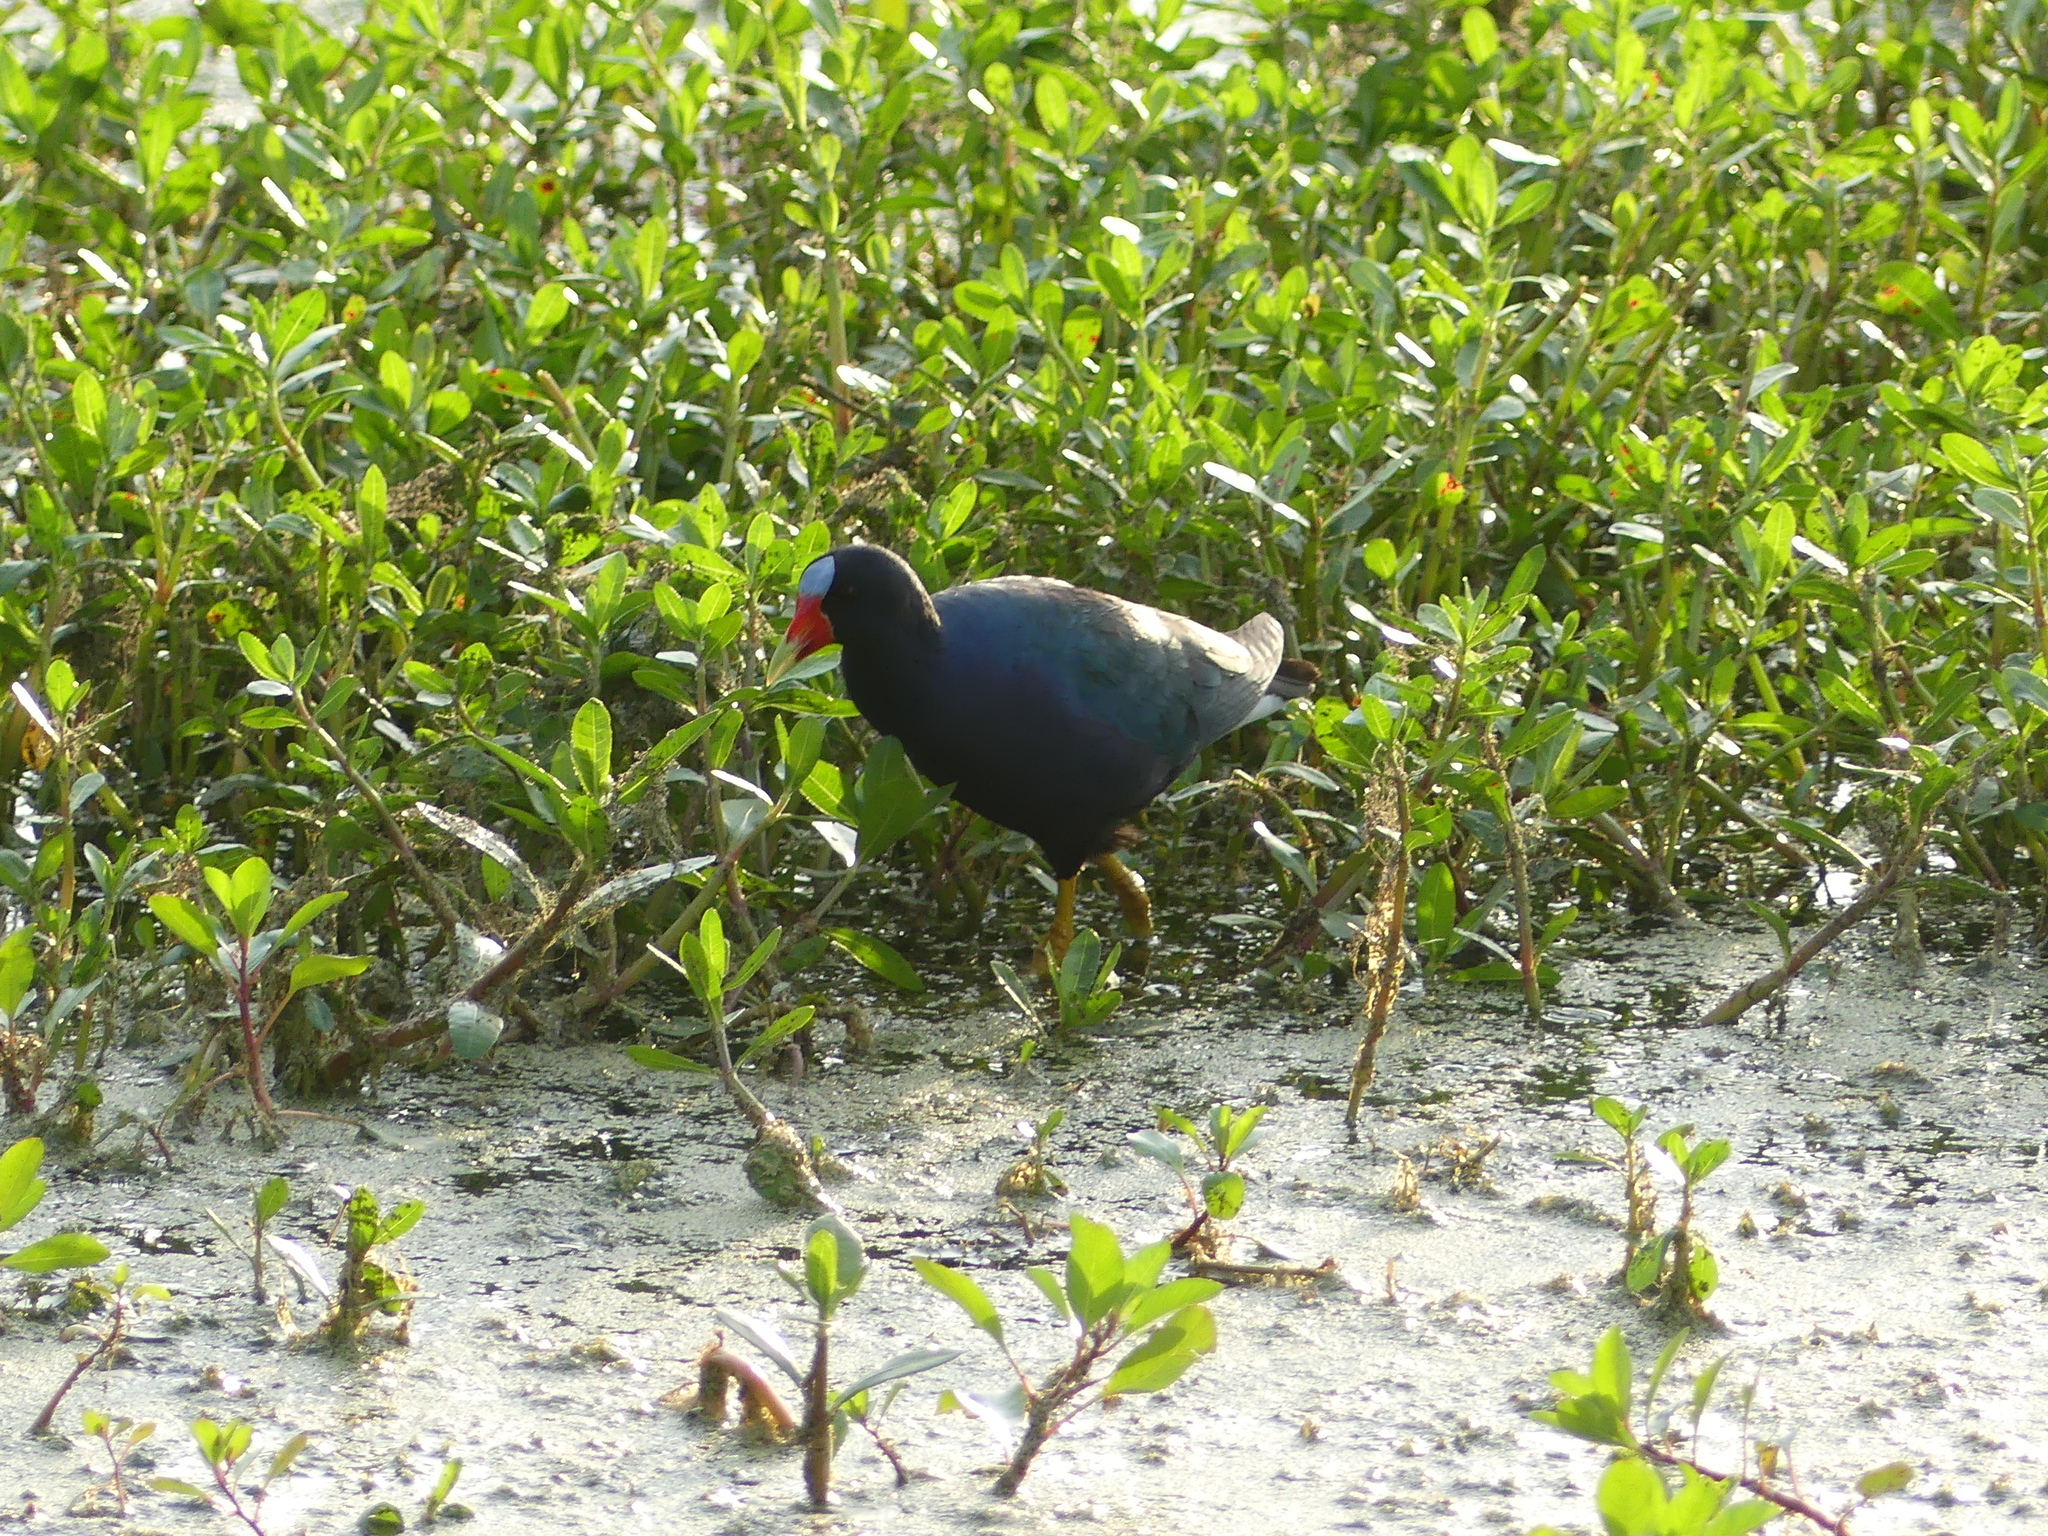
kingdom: Animalia
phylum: Chordata
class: Aves
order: Gruiformes
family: Rallidae
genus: Porphyrio
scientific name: Porphyrio martinica
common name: Purple gallinule
